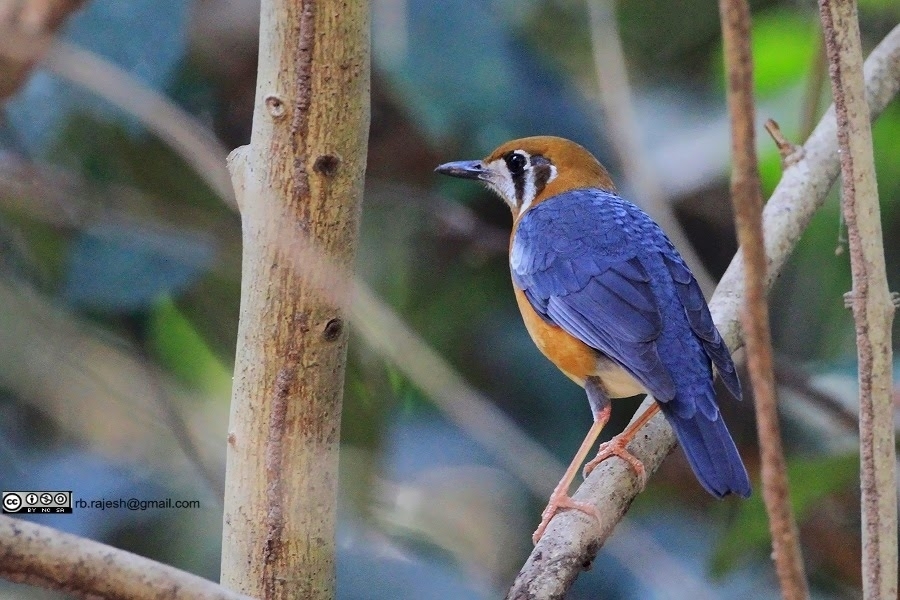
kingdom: Animalia
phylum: Chordata
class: Aves
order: Passeriformes
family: Turdidae
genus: Geokichla
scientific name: Geokichla citrina
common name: Orange-headed thrush
